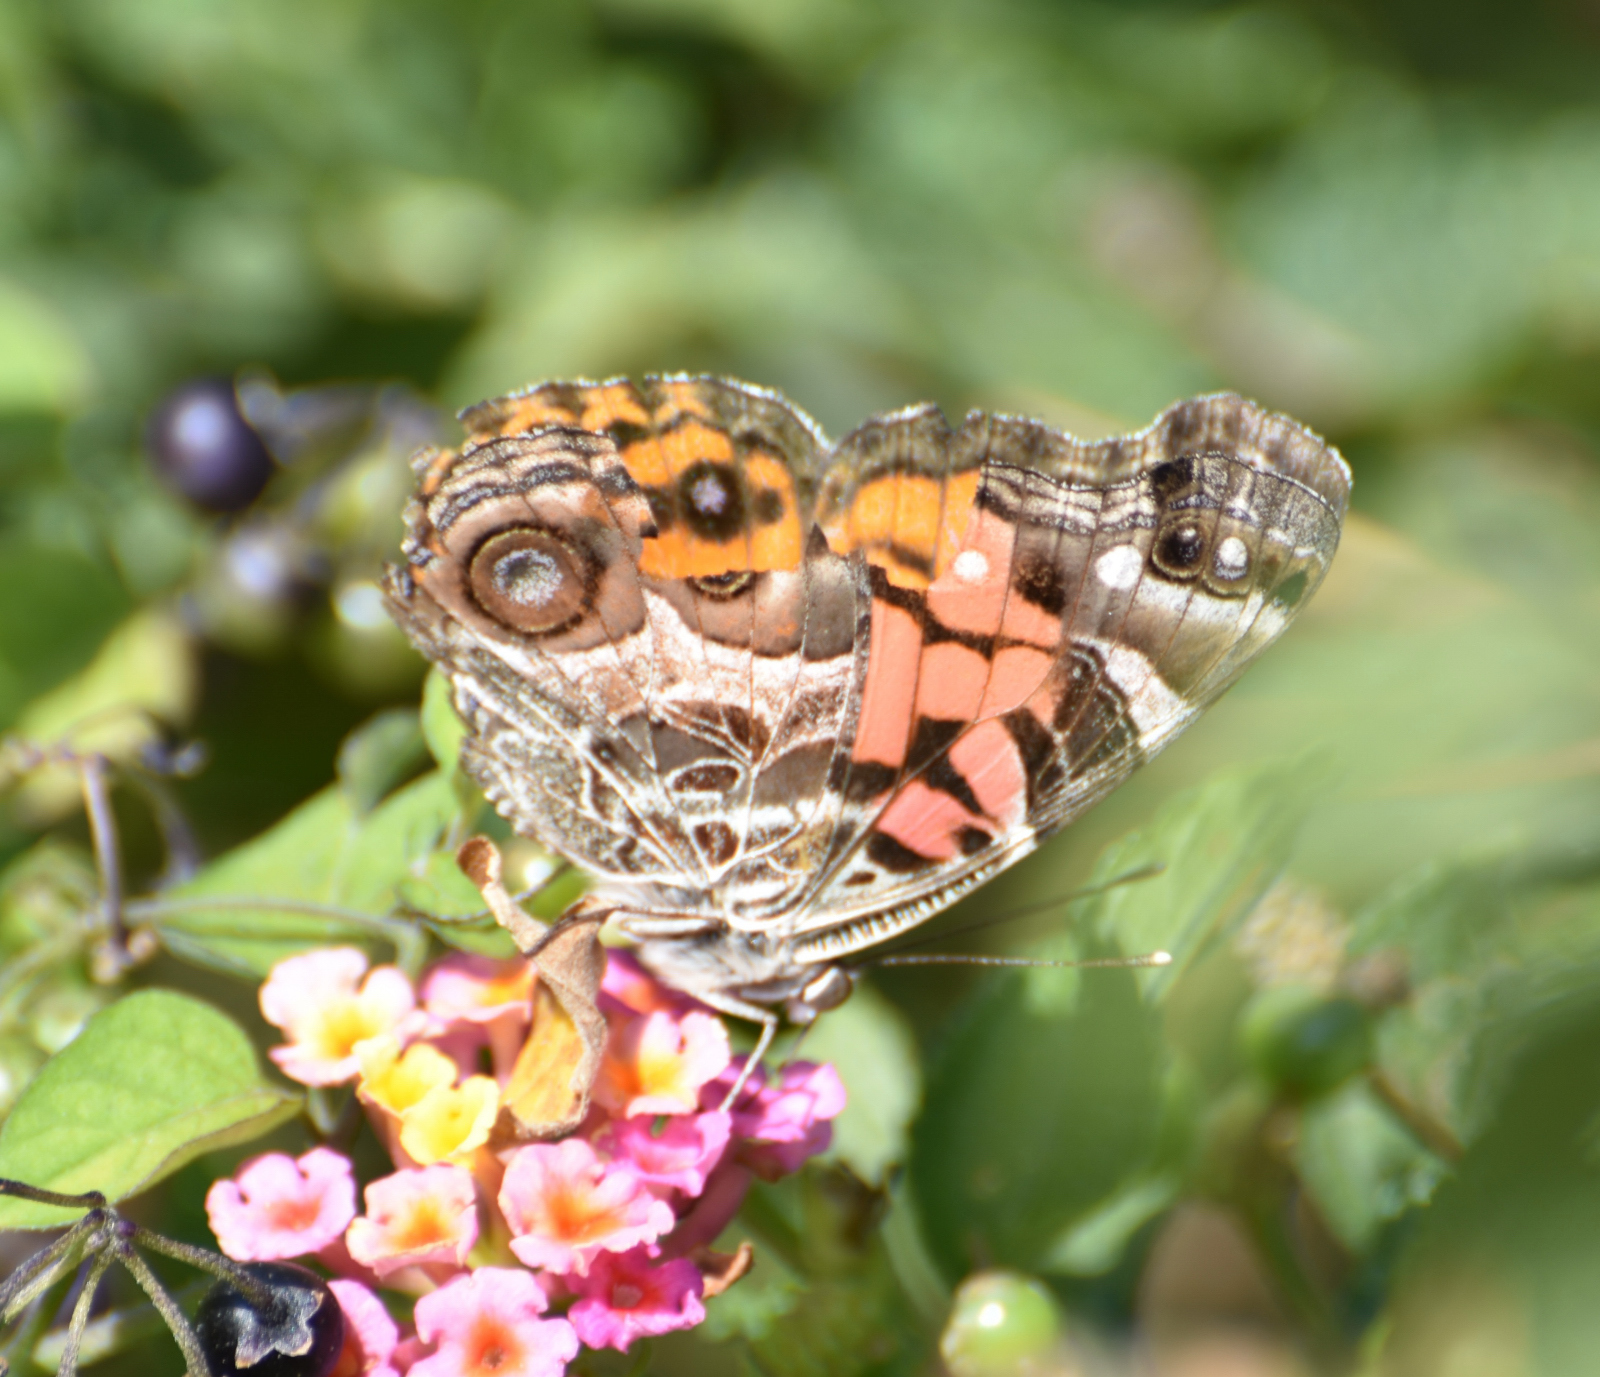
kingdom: Animalia
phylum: Arthropoda
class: Insecta
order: Lepidoptera
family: Nymphalidae
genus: Vanessa
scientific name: Vanessa virginiensis
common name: American lady
